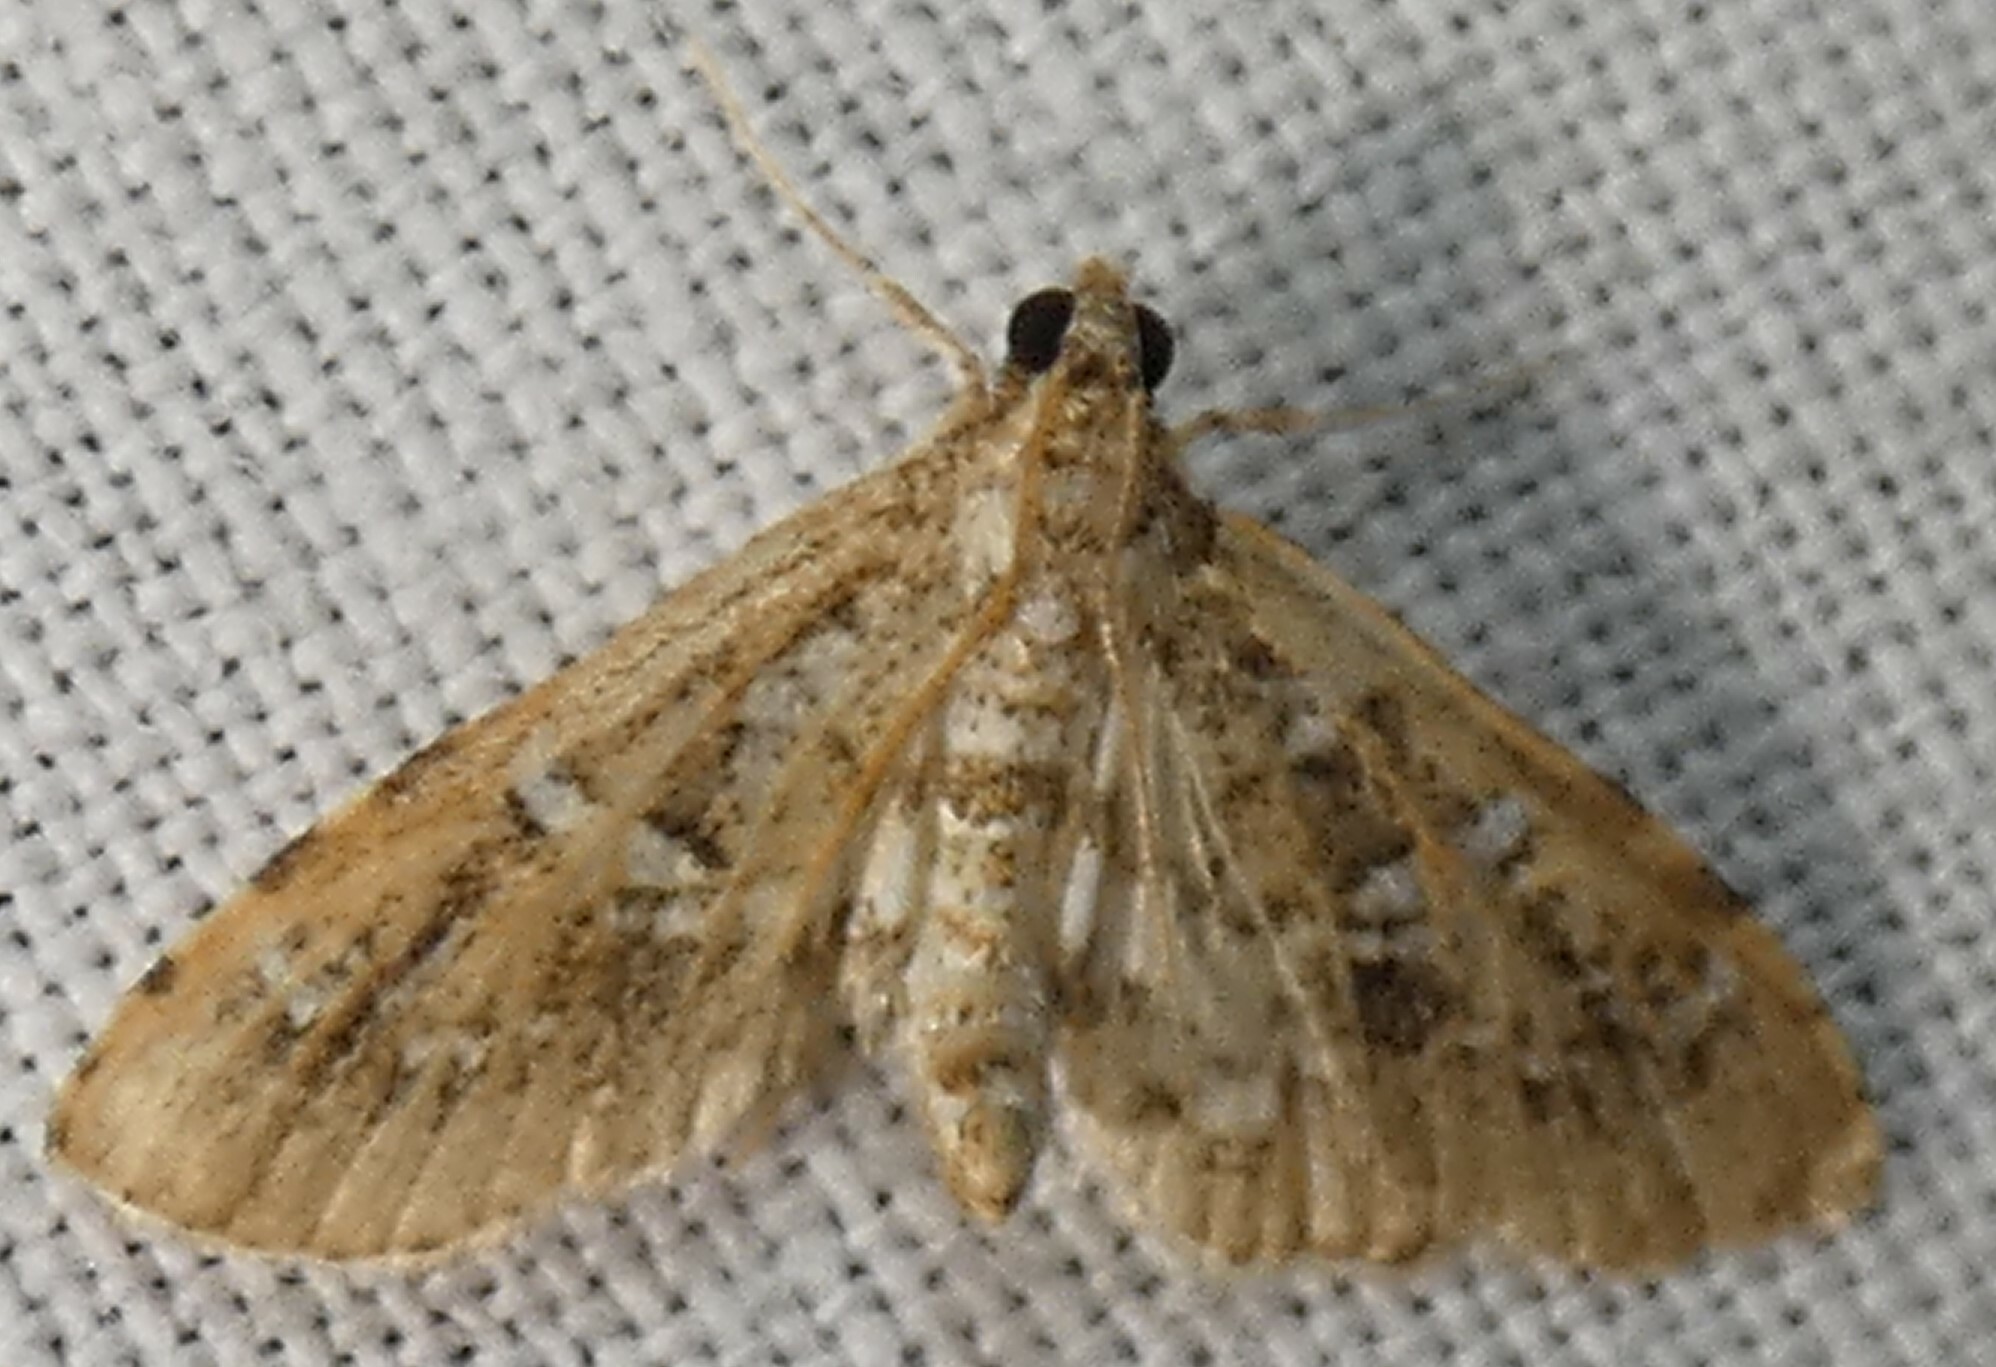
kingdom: Animalia
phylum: Arthropoda
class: Insecta
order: Lepidoptera
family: Crambidae
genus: Samea
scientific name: Samea multiplicalis
